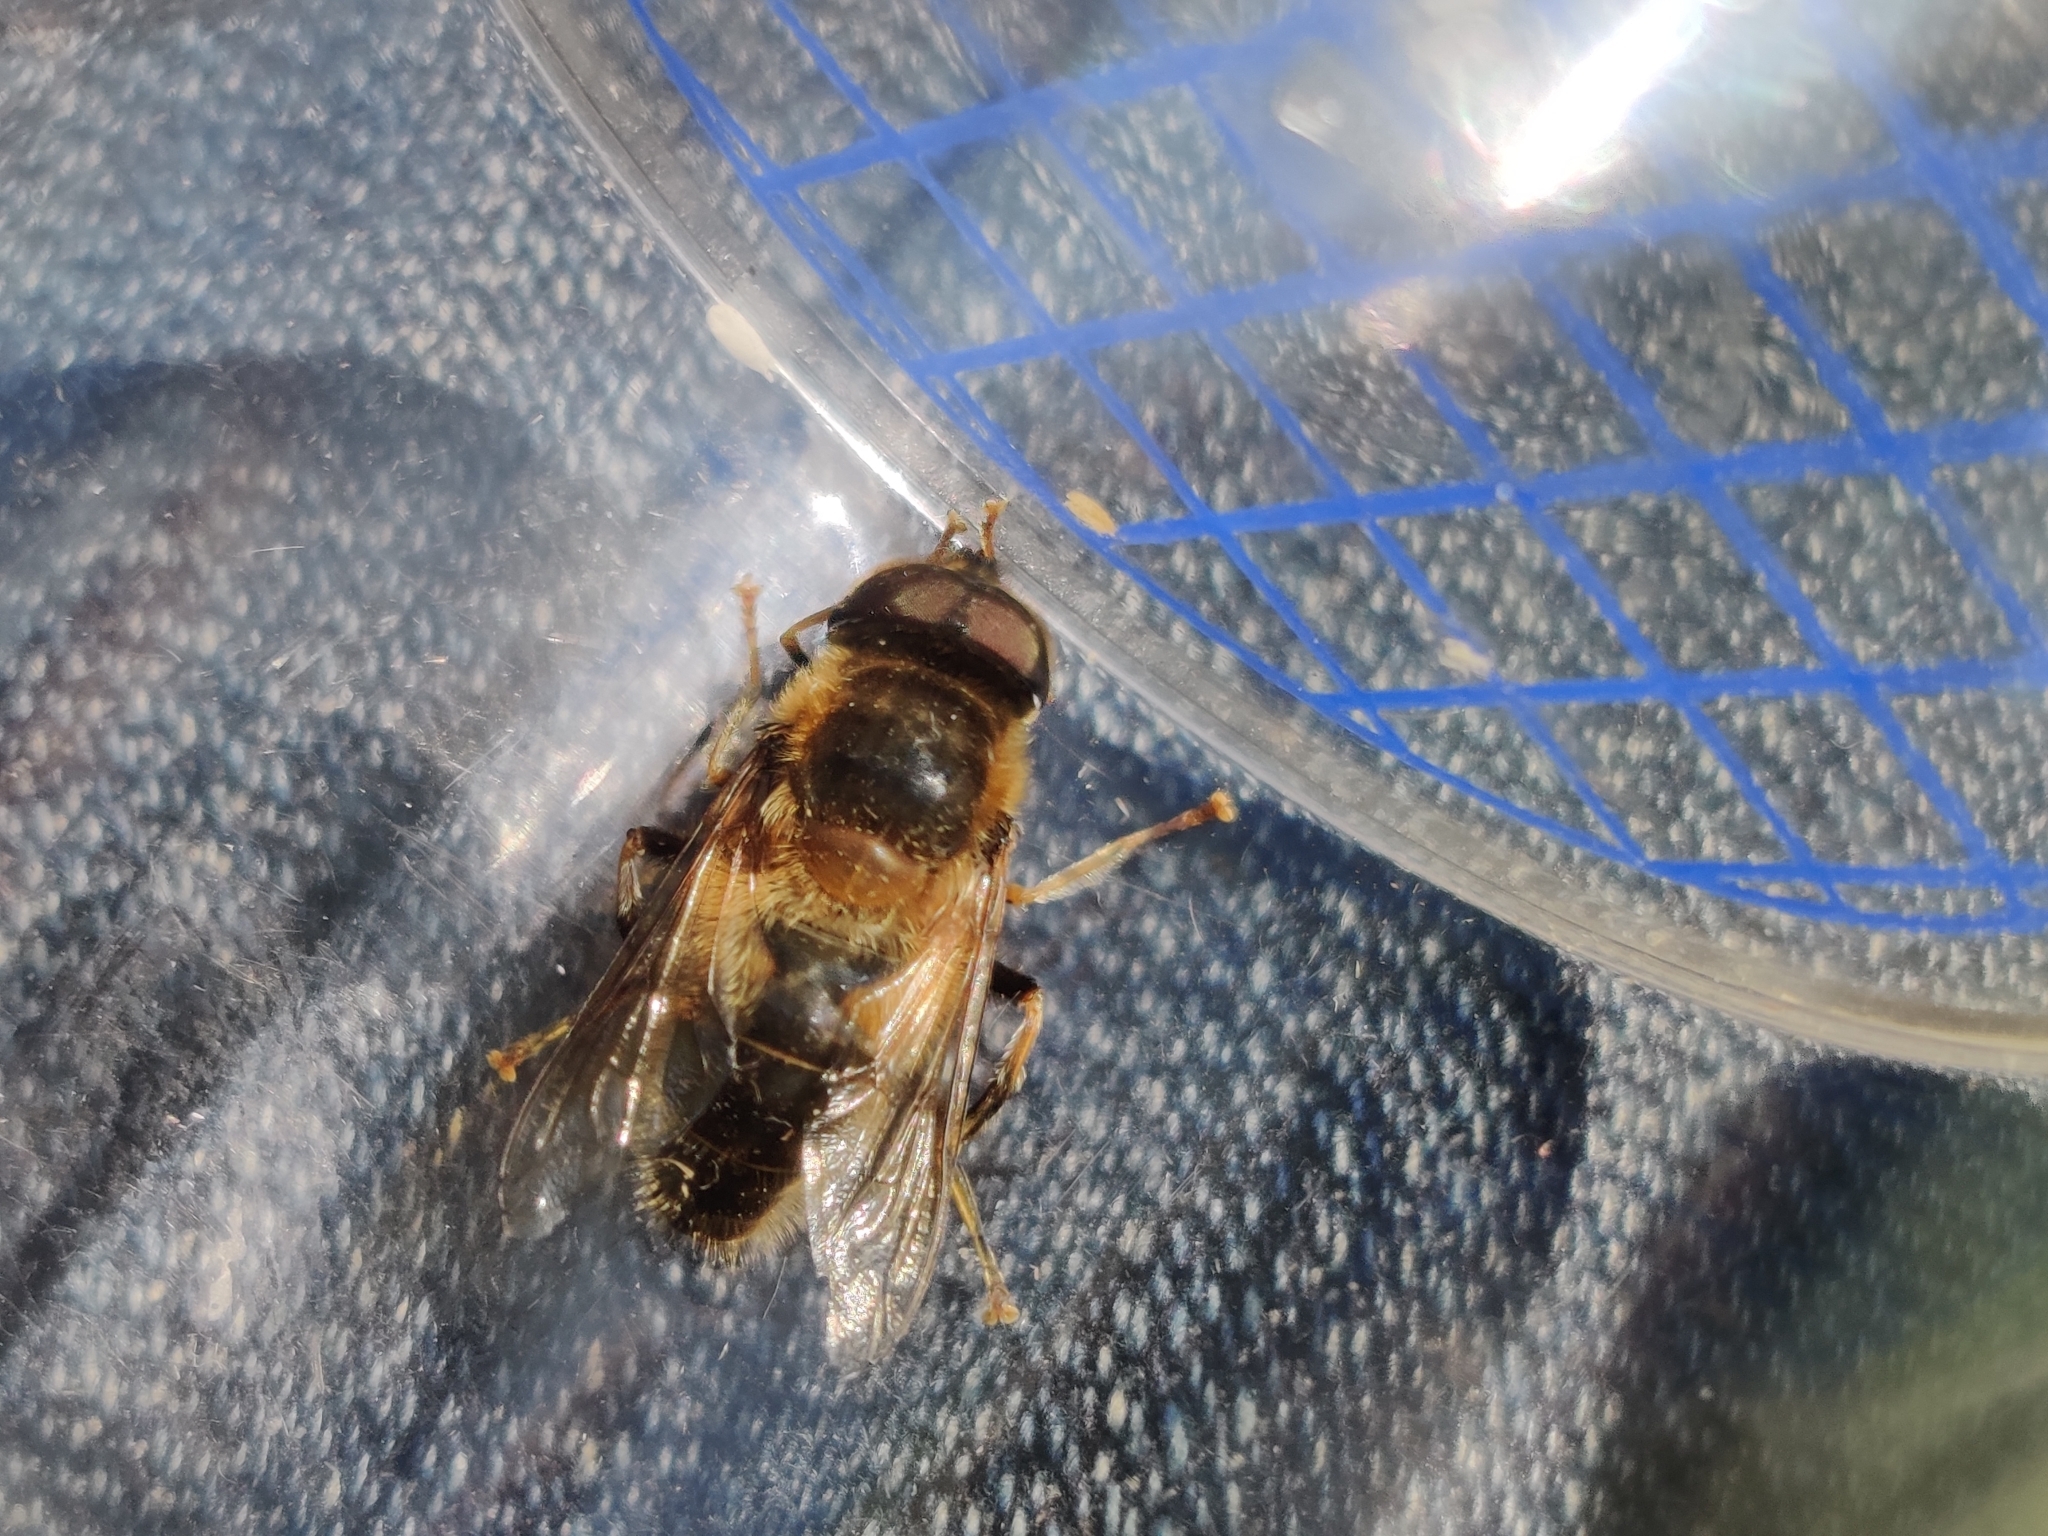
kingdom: Animalia
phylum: Arthropoda
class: Insecta
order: Diptera
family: Syrphidae
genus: Eristalis
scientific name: Eristalis pertinax
